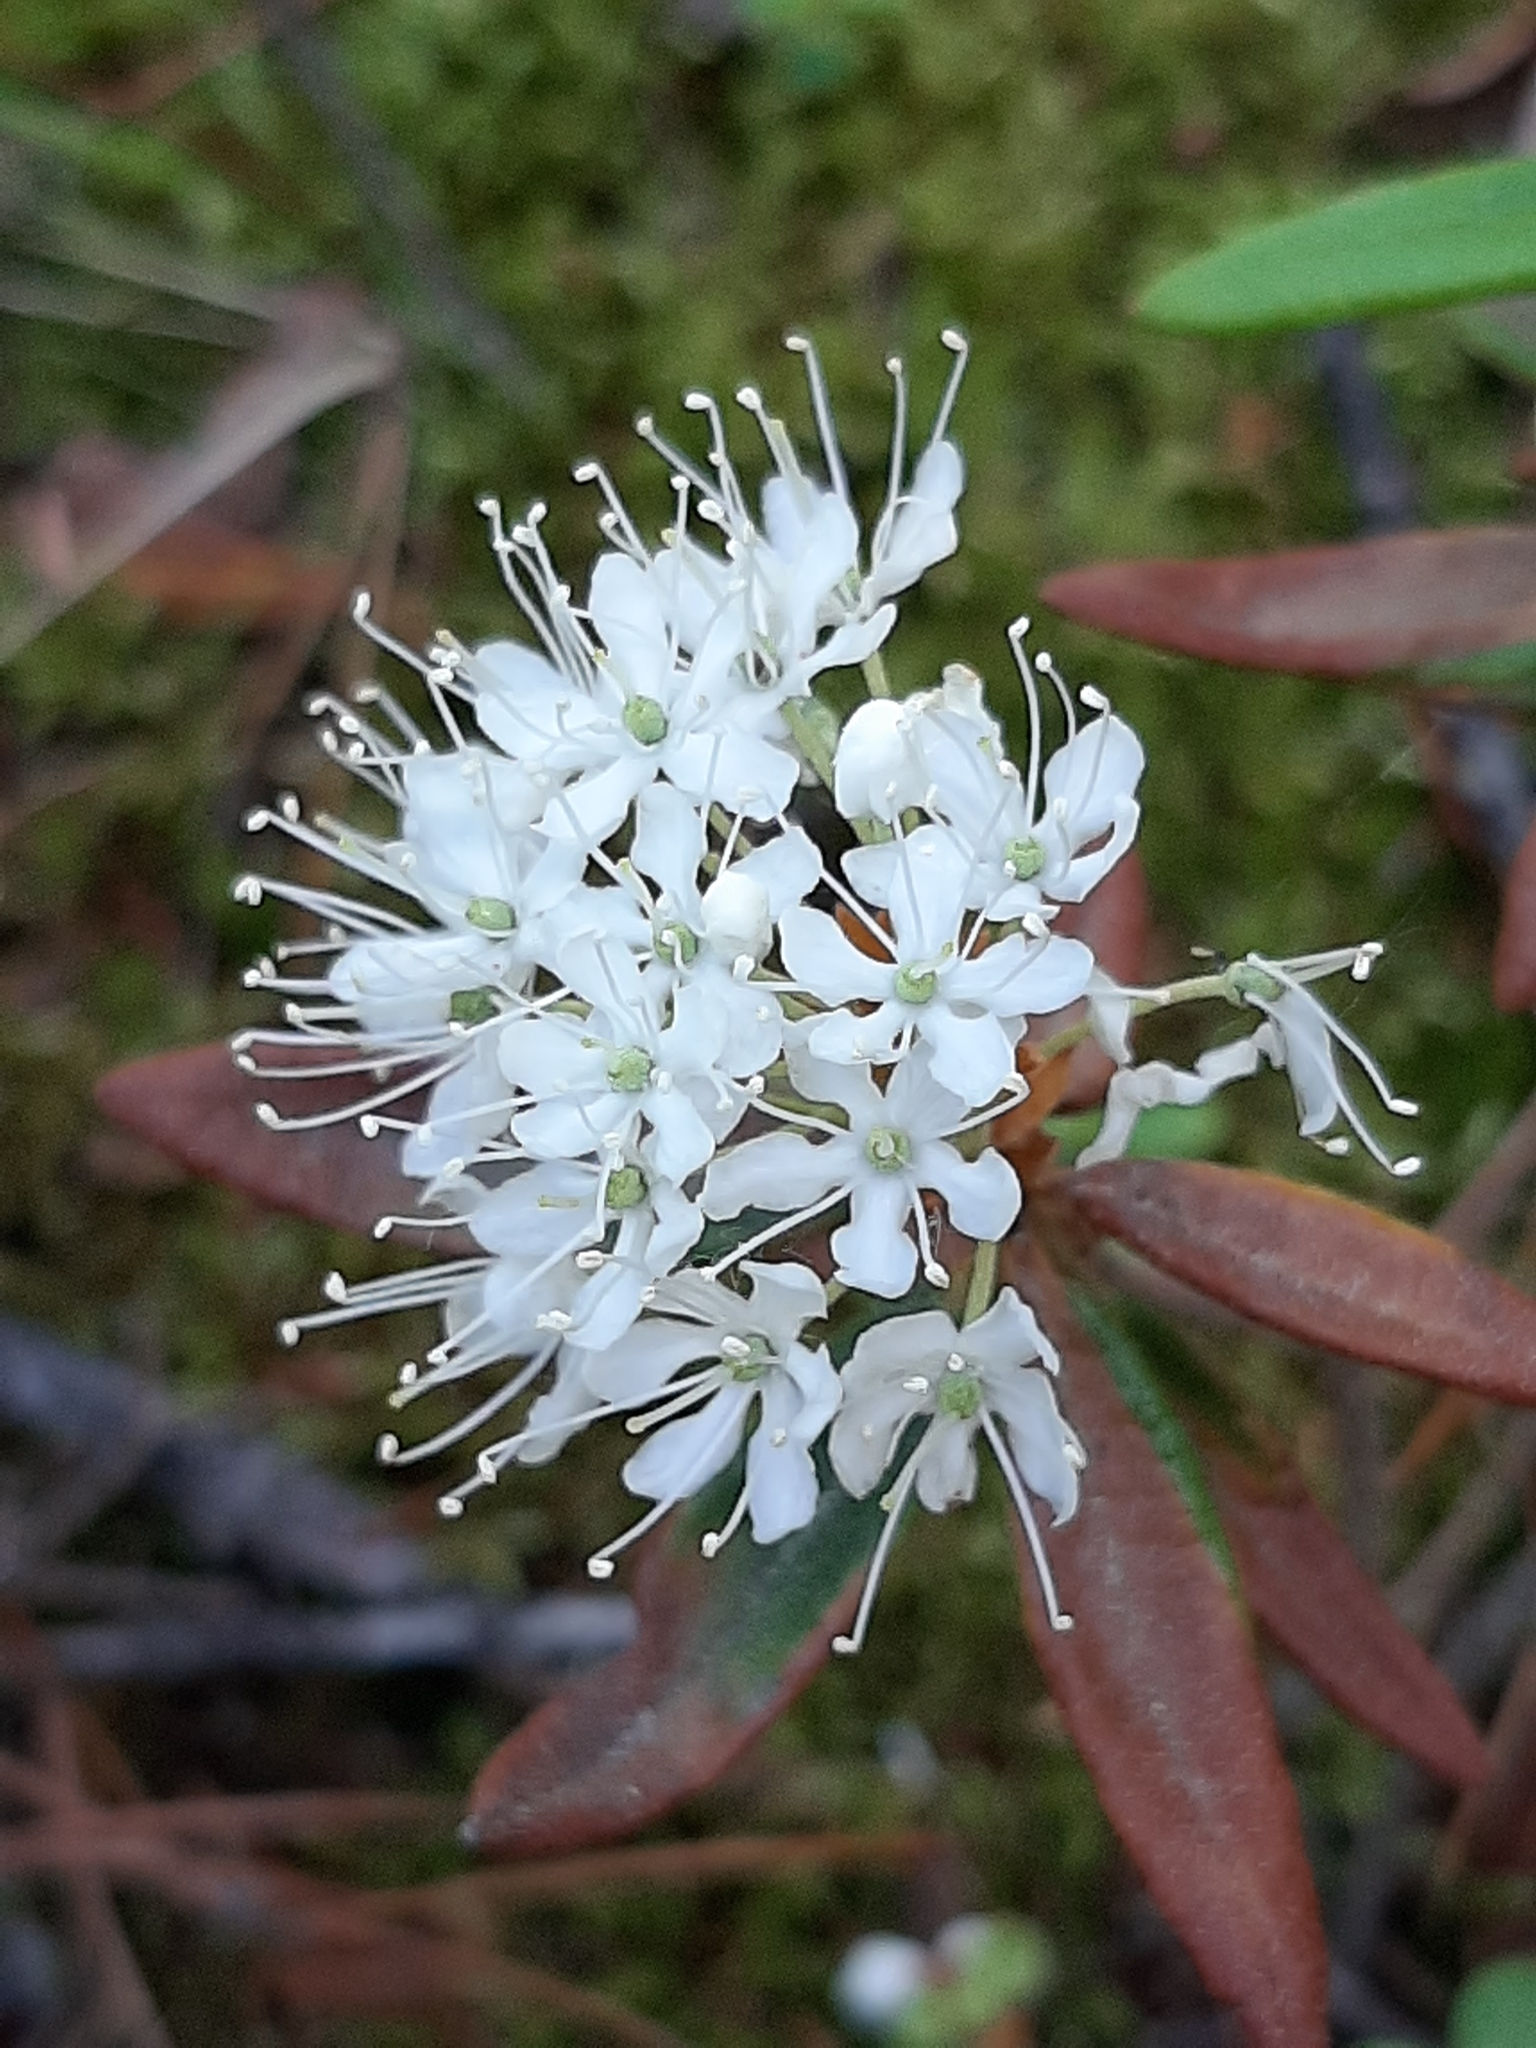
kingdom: Plantae
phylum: Tracheophyta
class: Magnoliopsida
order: Ericales
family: Ericaceae
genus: Rhododendron
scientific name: Rhododendron groenlandicum
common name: Bog labrador tea
